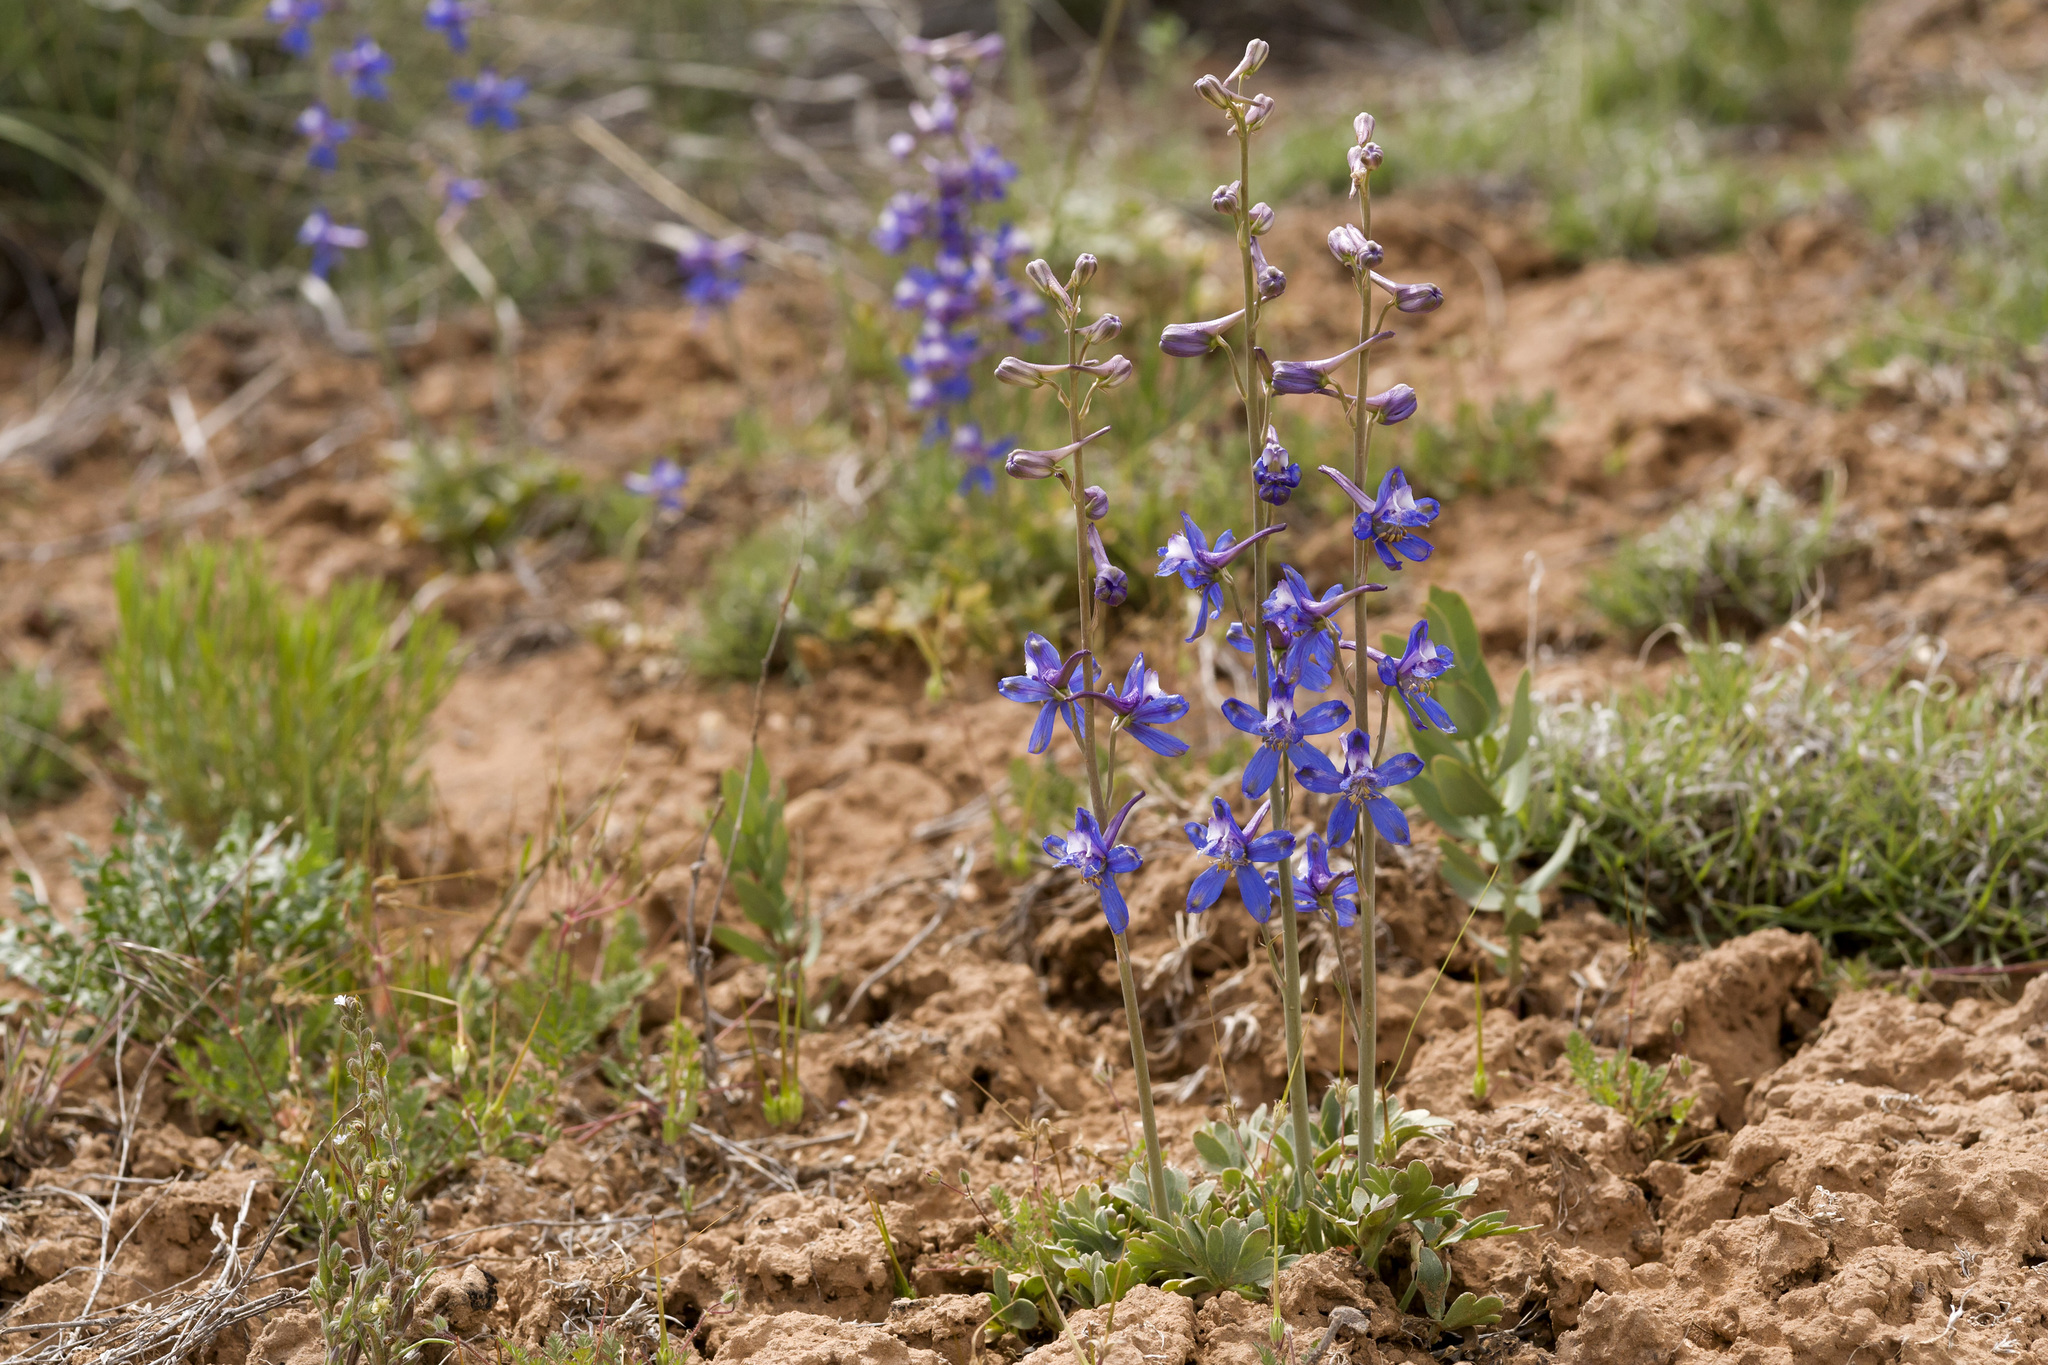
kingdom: Plantae
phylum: Tracheophyta
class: Magnoliopsida
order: Ranunculales
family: Ranunculaceae
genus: Delphinium
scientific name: Delphinium scaposum
